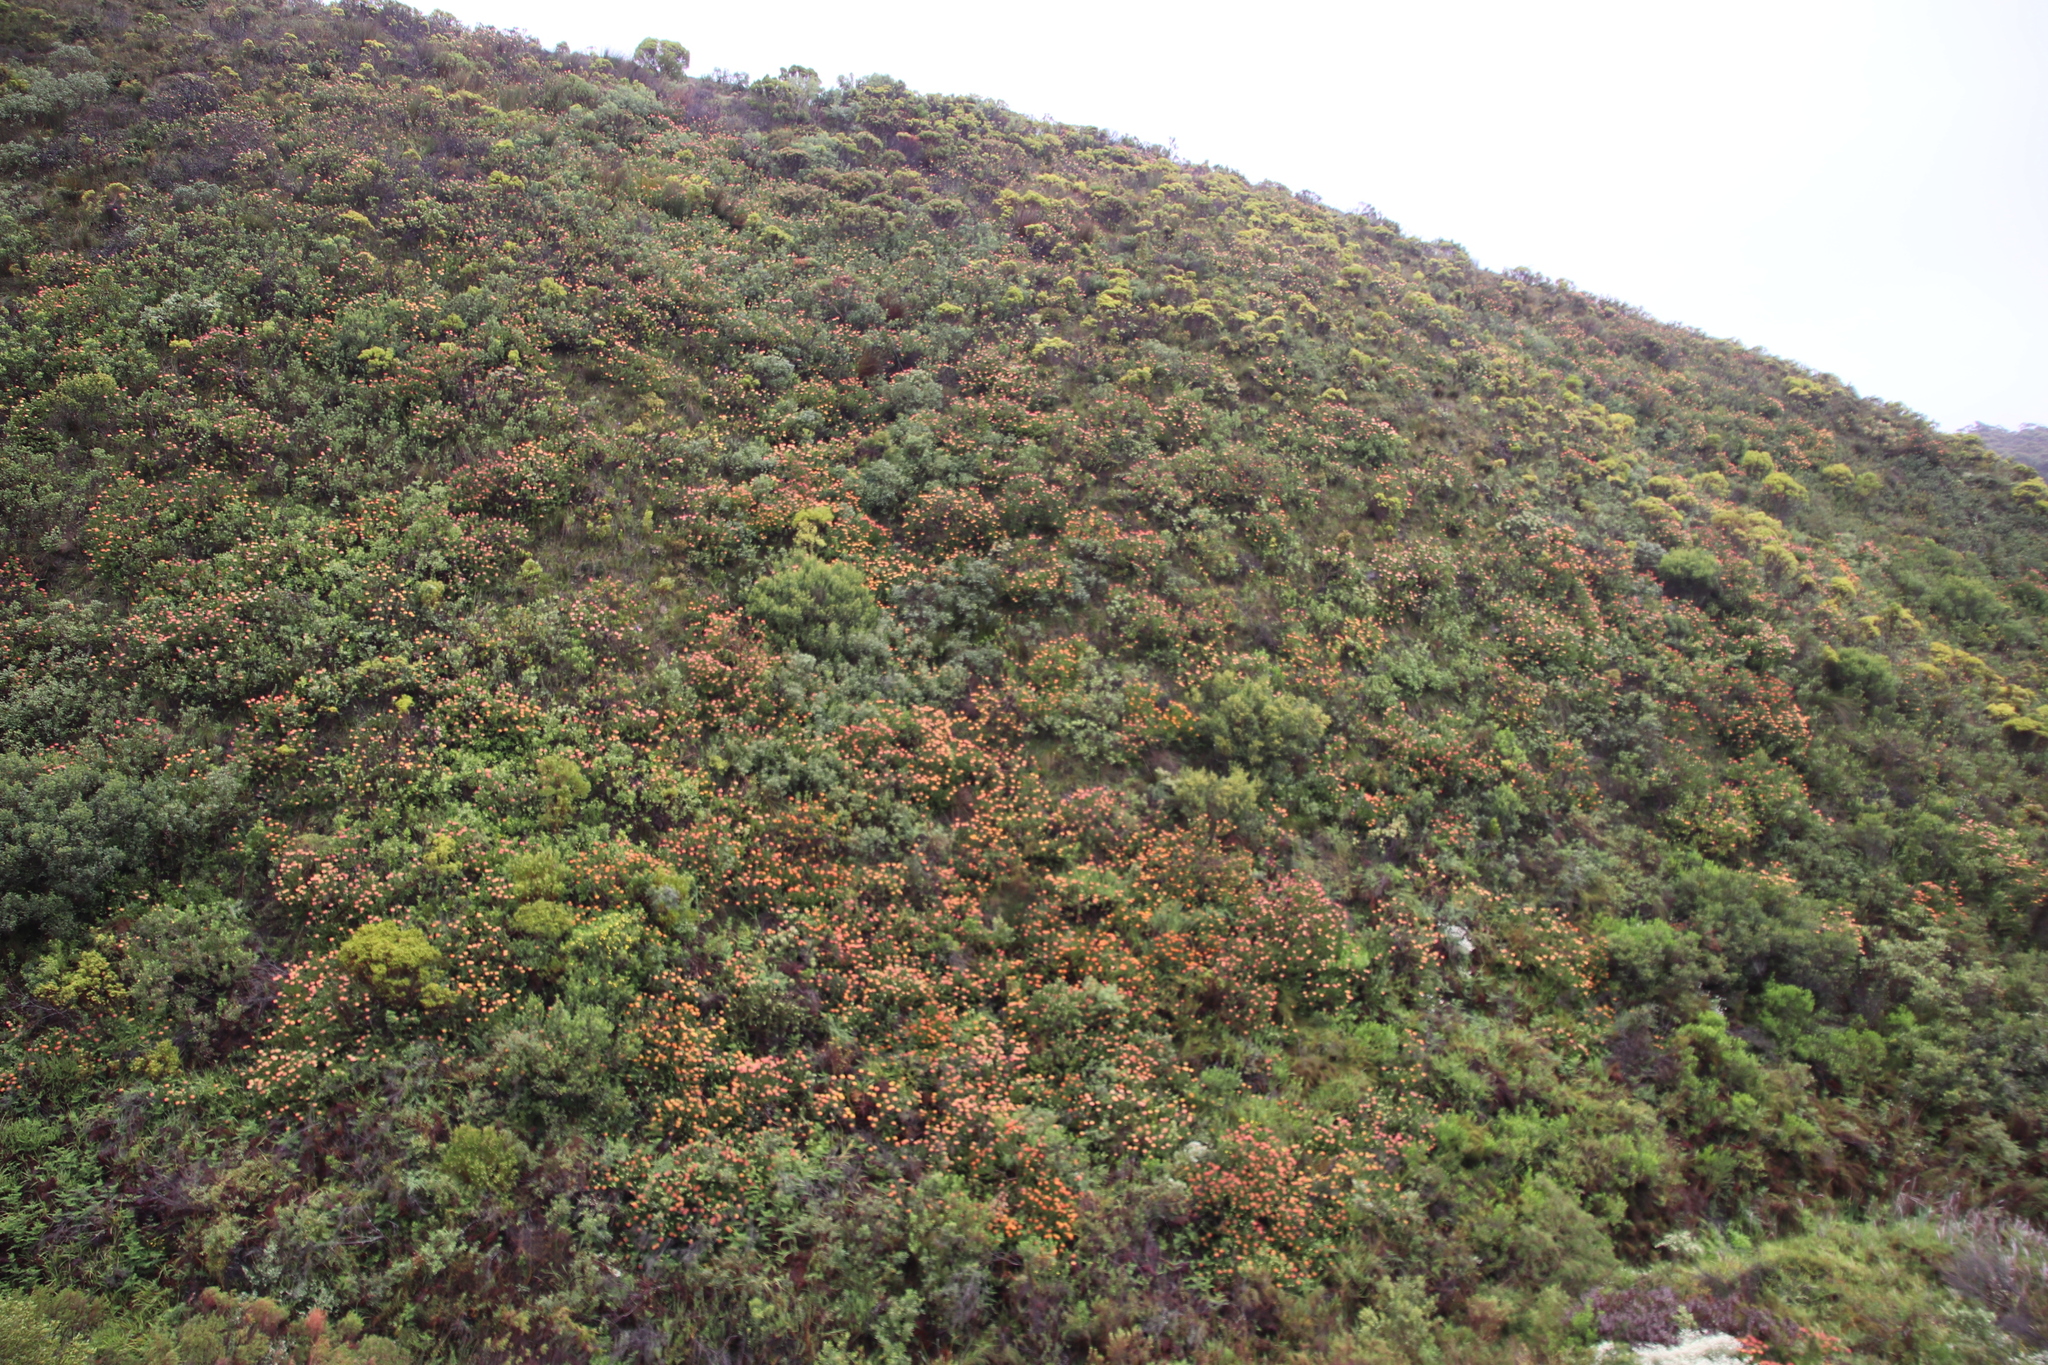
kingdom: Plantae
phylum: Tracheophyta
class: Magnoliopsida
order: Proteales
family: Proteaceae
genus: Leucospermum
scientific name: Leucospermum patersonii
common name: False tree pincushion
